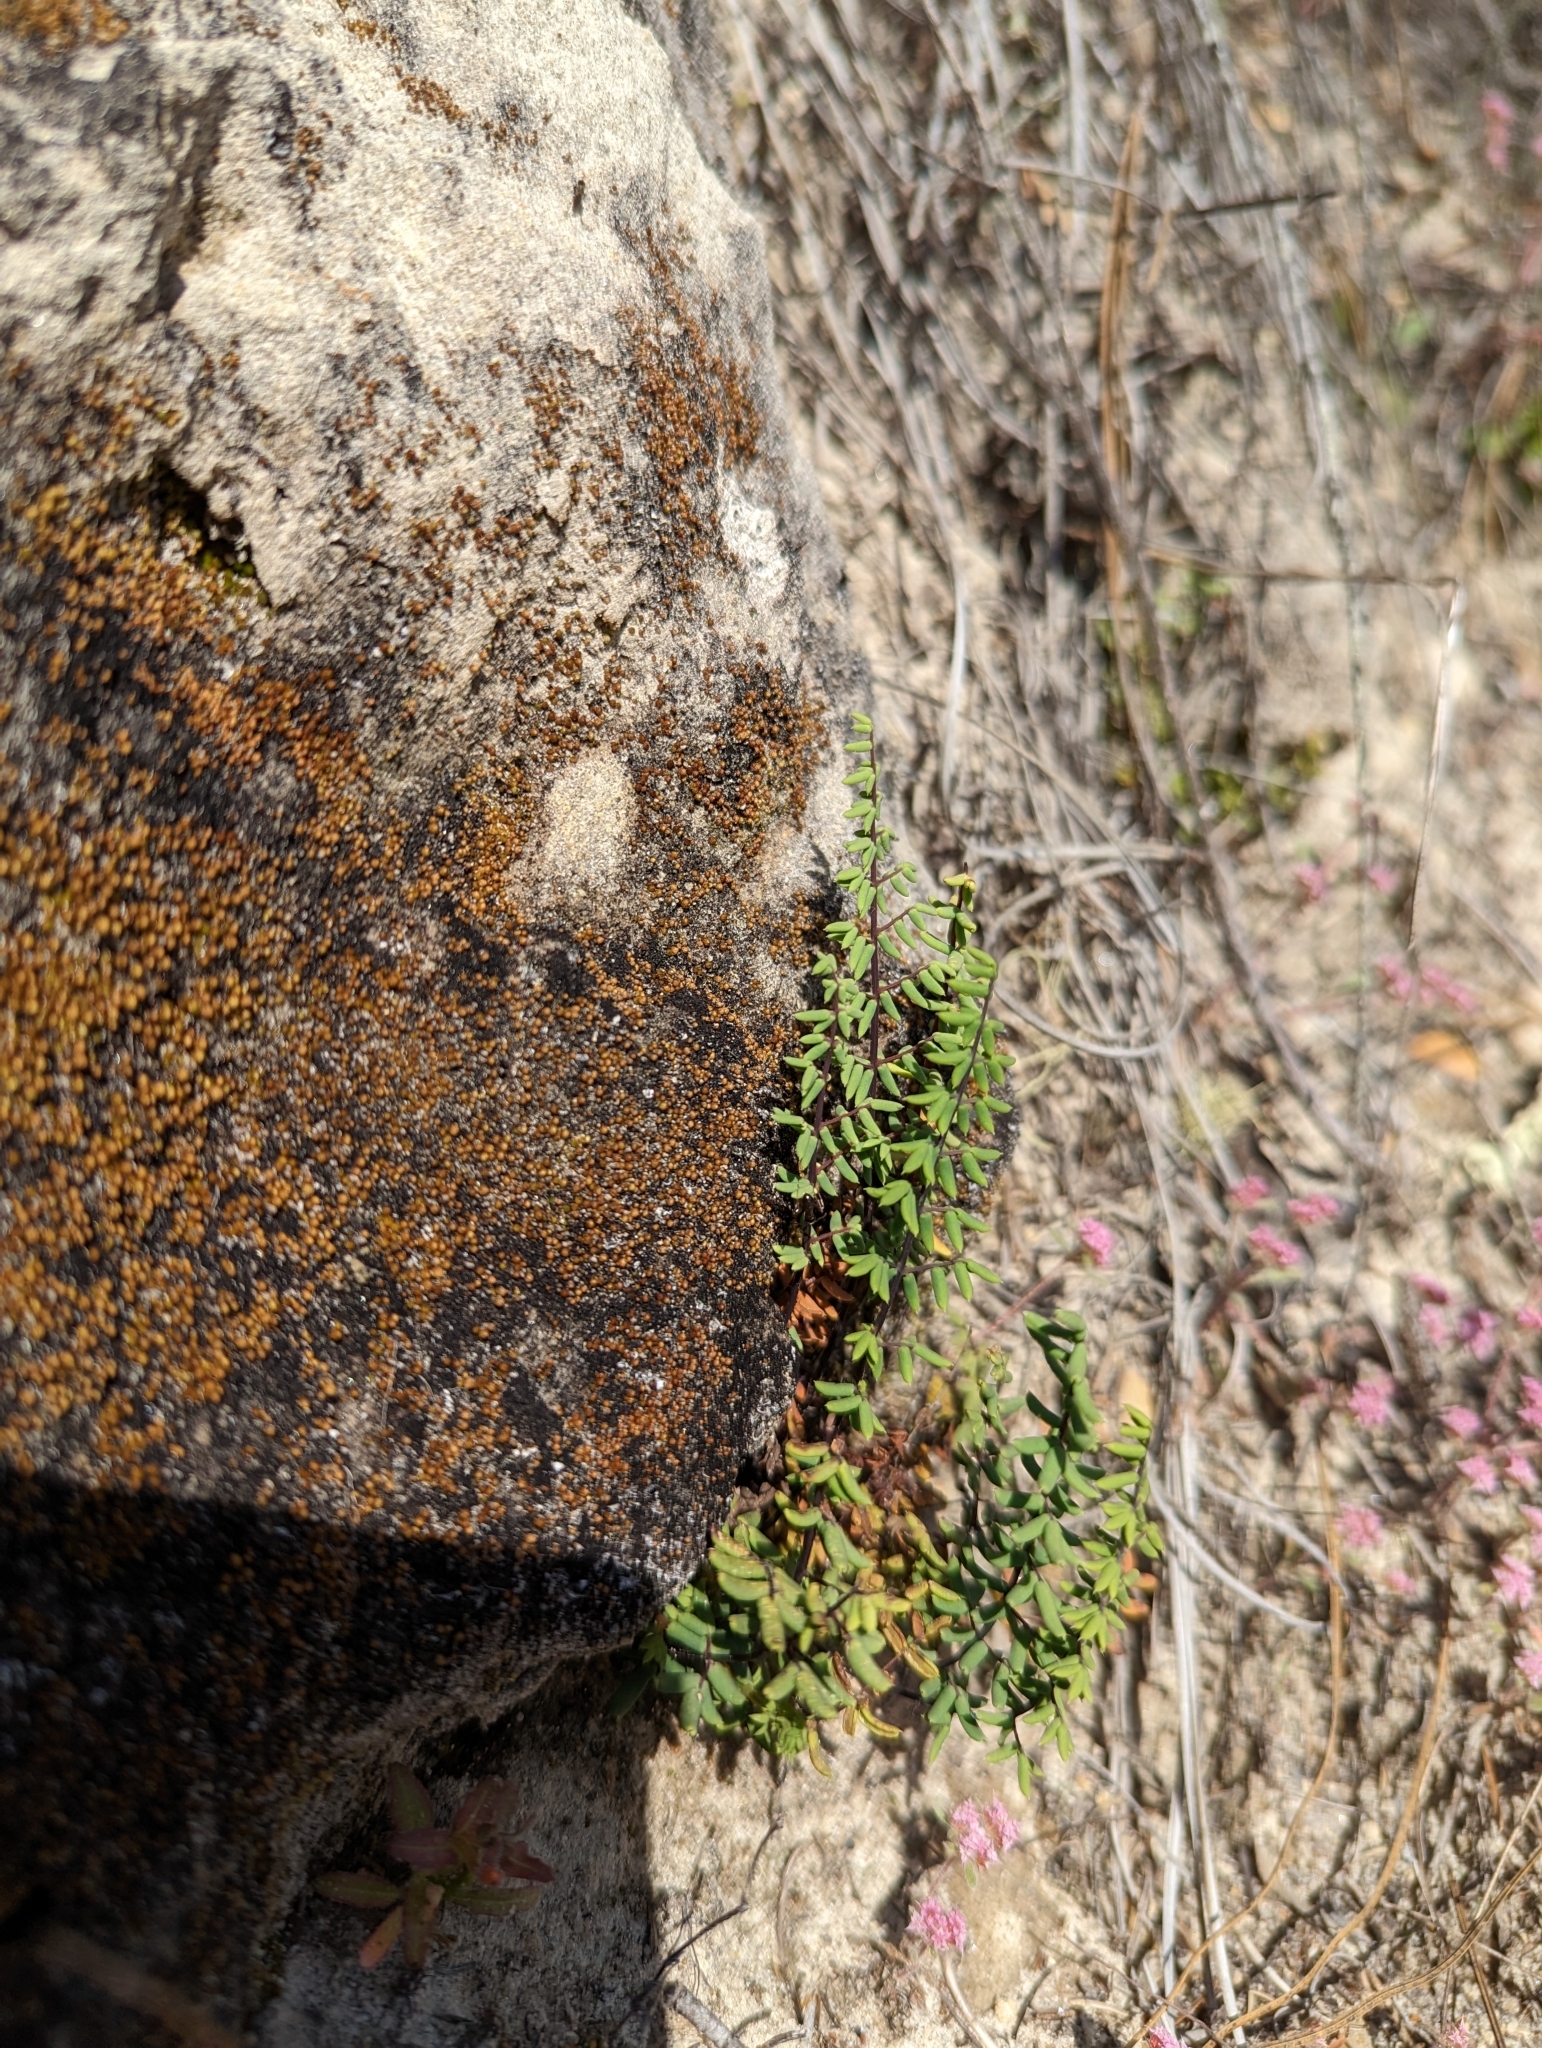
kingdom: Plantae
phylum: Tracheophyta
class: Polypodiopsida
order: Polypodiales
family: Pteridaceae
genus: Pellaea
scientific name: Pellaea mucronata
